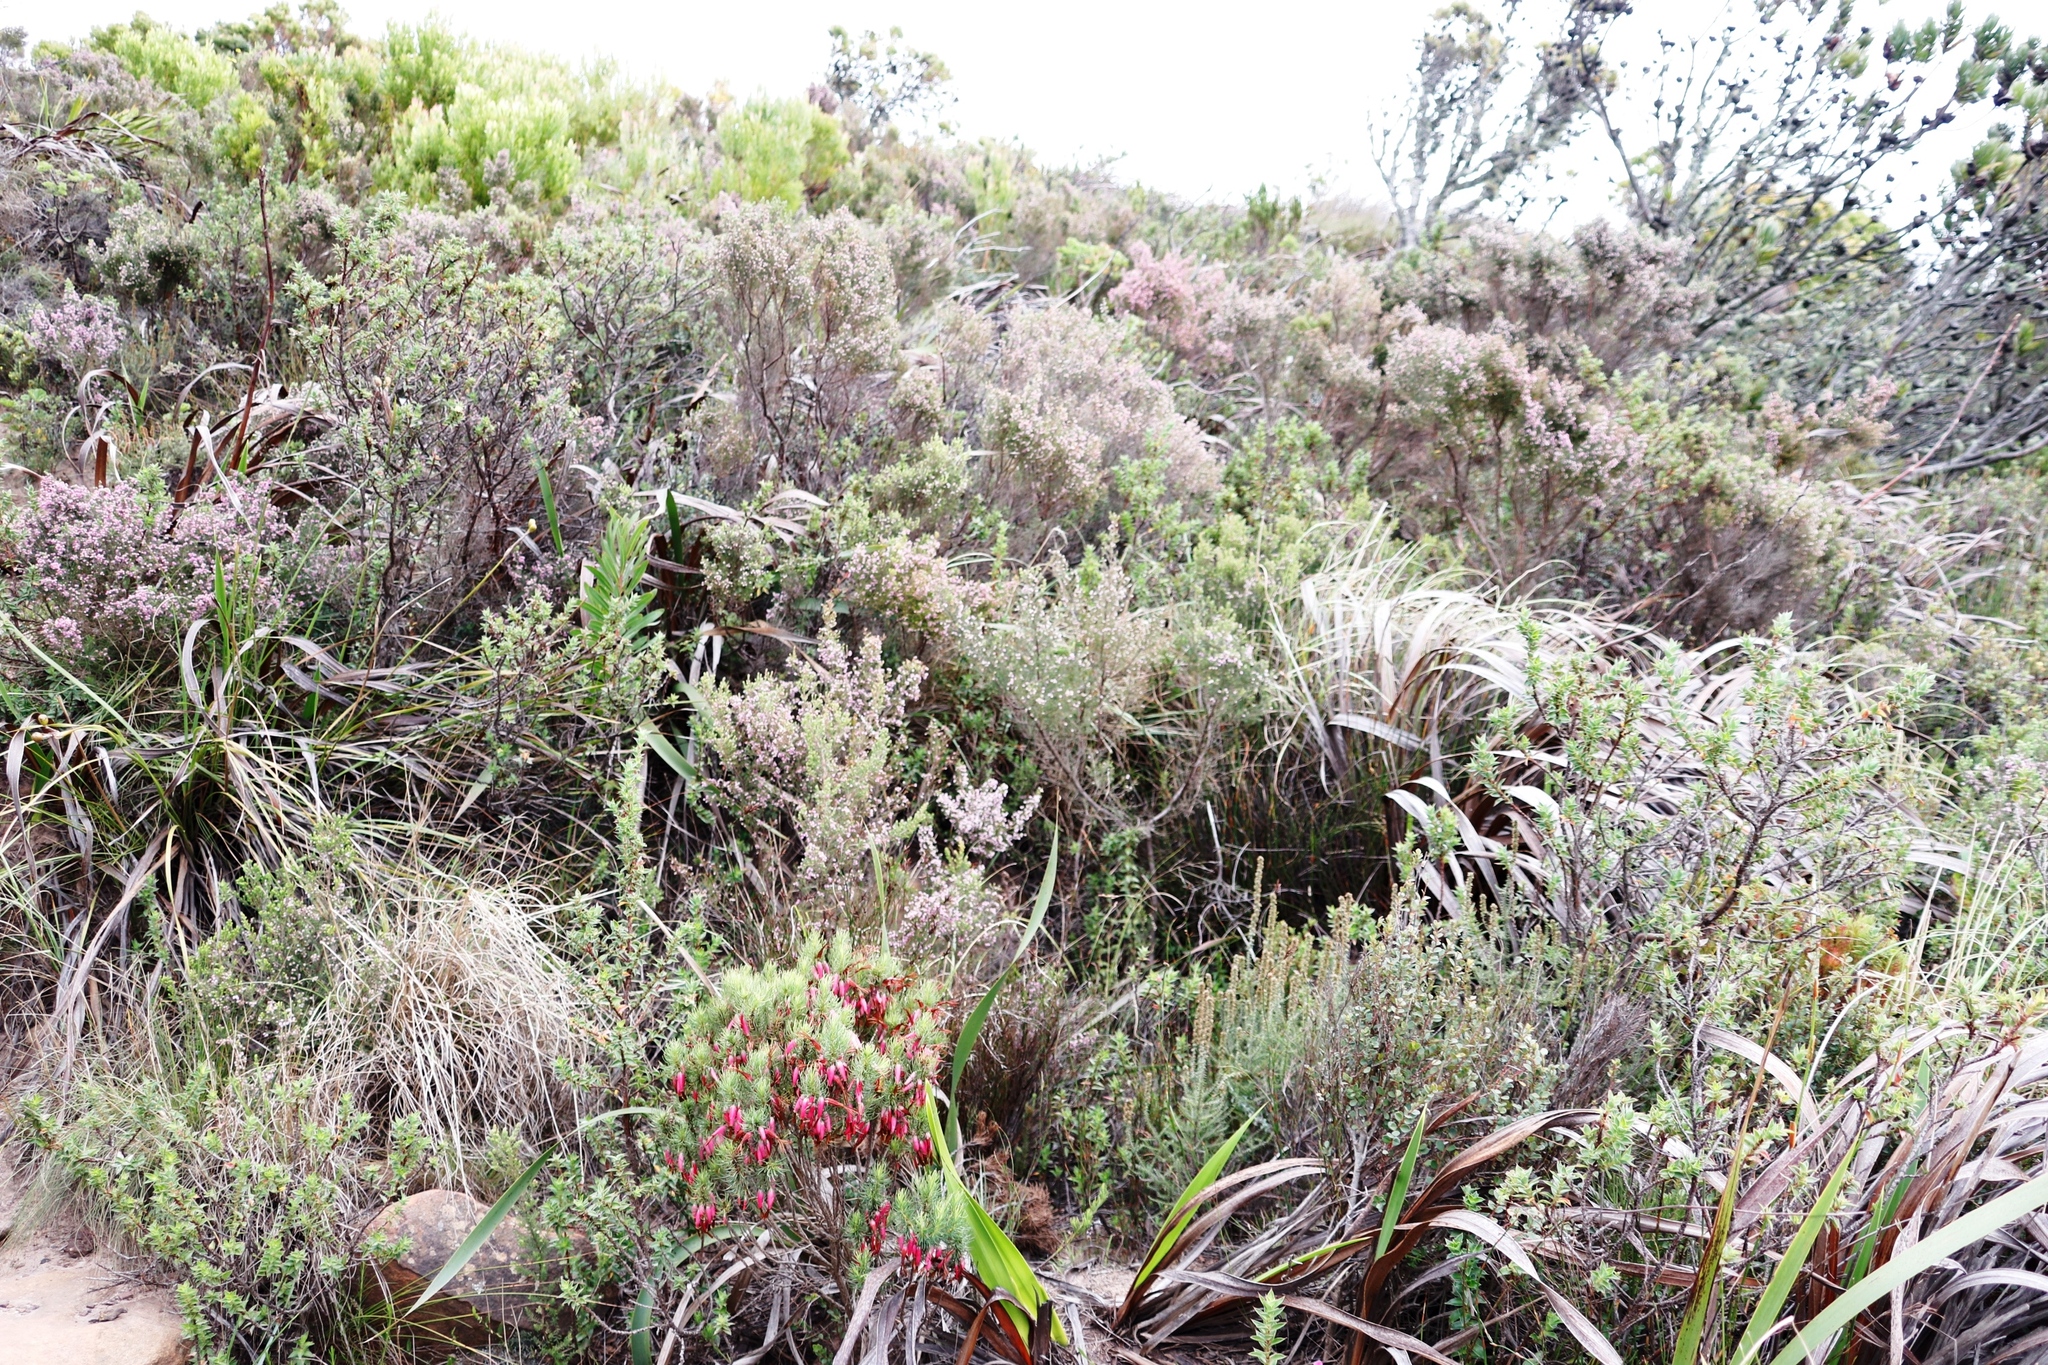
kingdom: Plantae
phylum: Tracheophyta
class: Magnoliopsida
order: Ericales
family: Ericaceae
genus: Erica
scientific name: Erica hirtiflora
